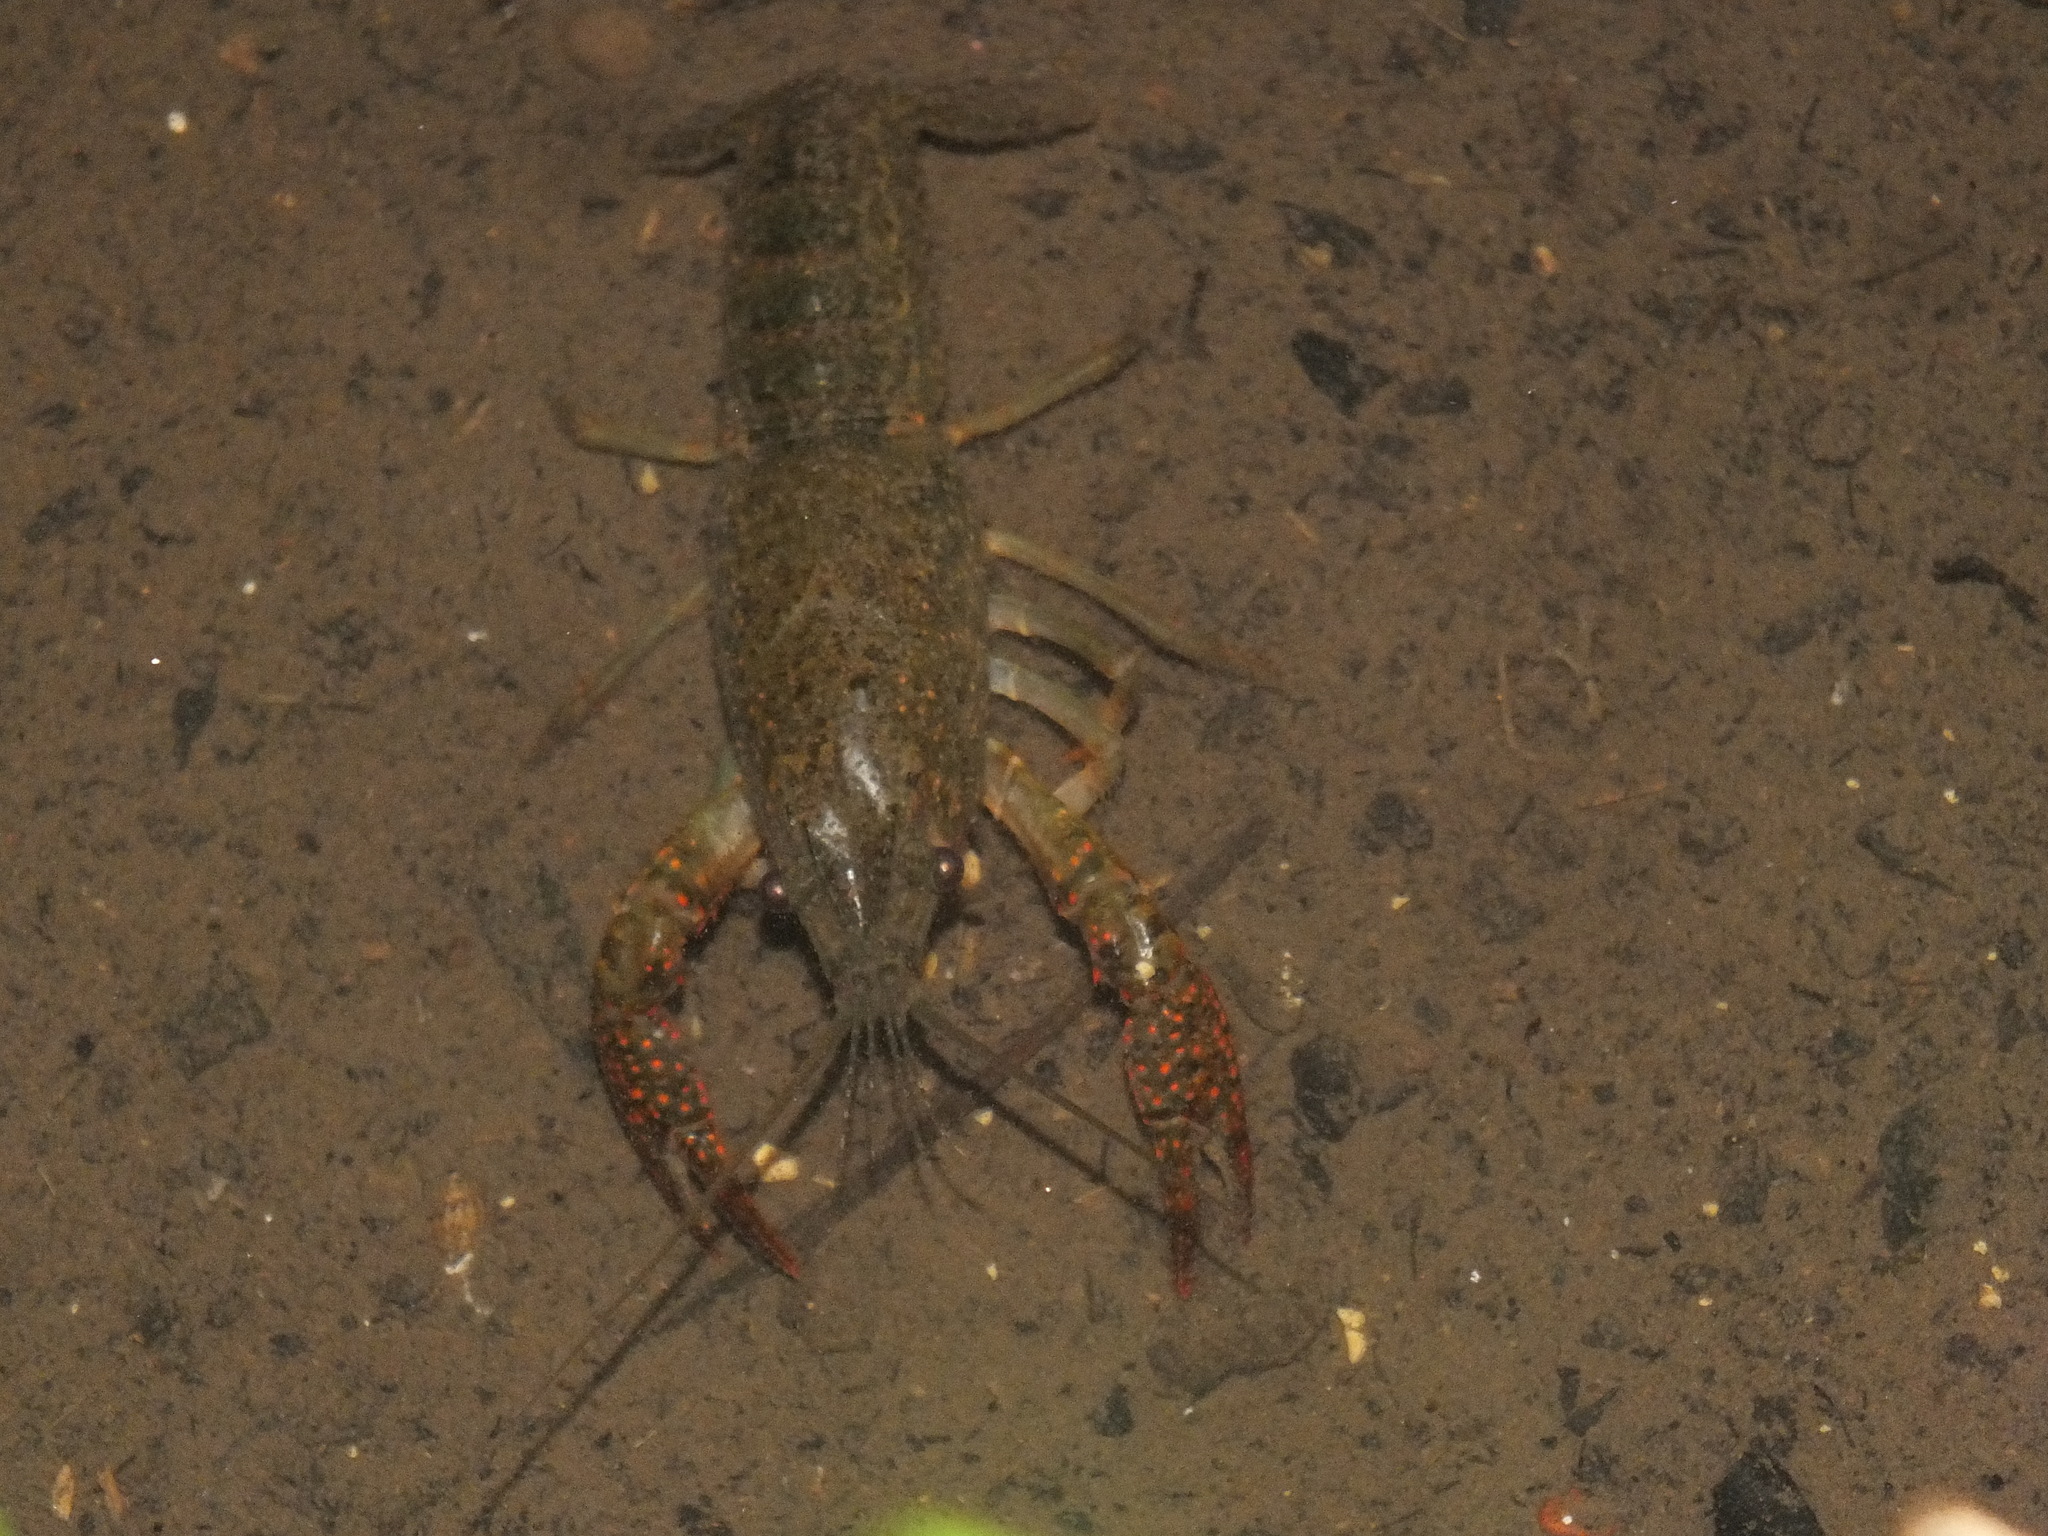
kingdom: Animalia
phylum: Arthropoda
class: Malacostraca
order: Decapoda
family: Cambaridae
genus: Procambarus
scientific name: Procambarus clarkii
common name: Red swamp crayfish
